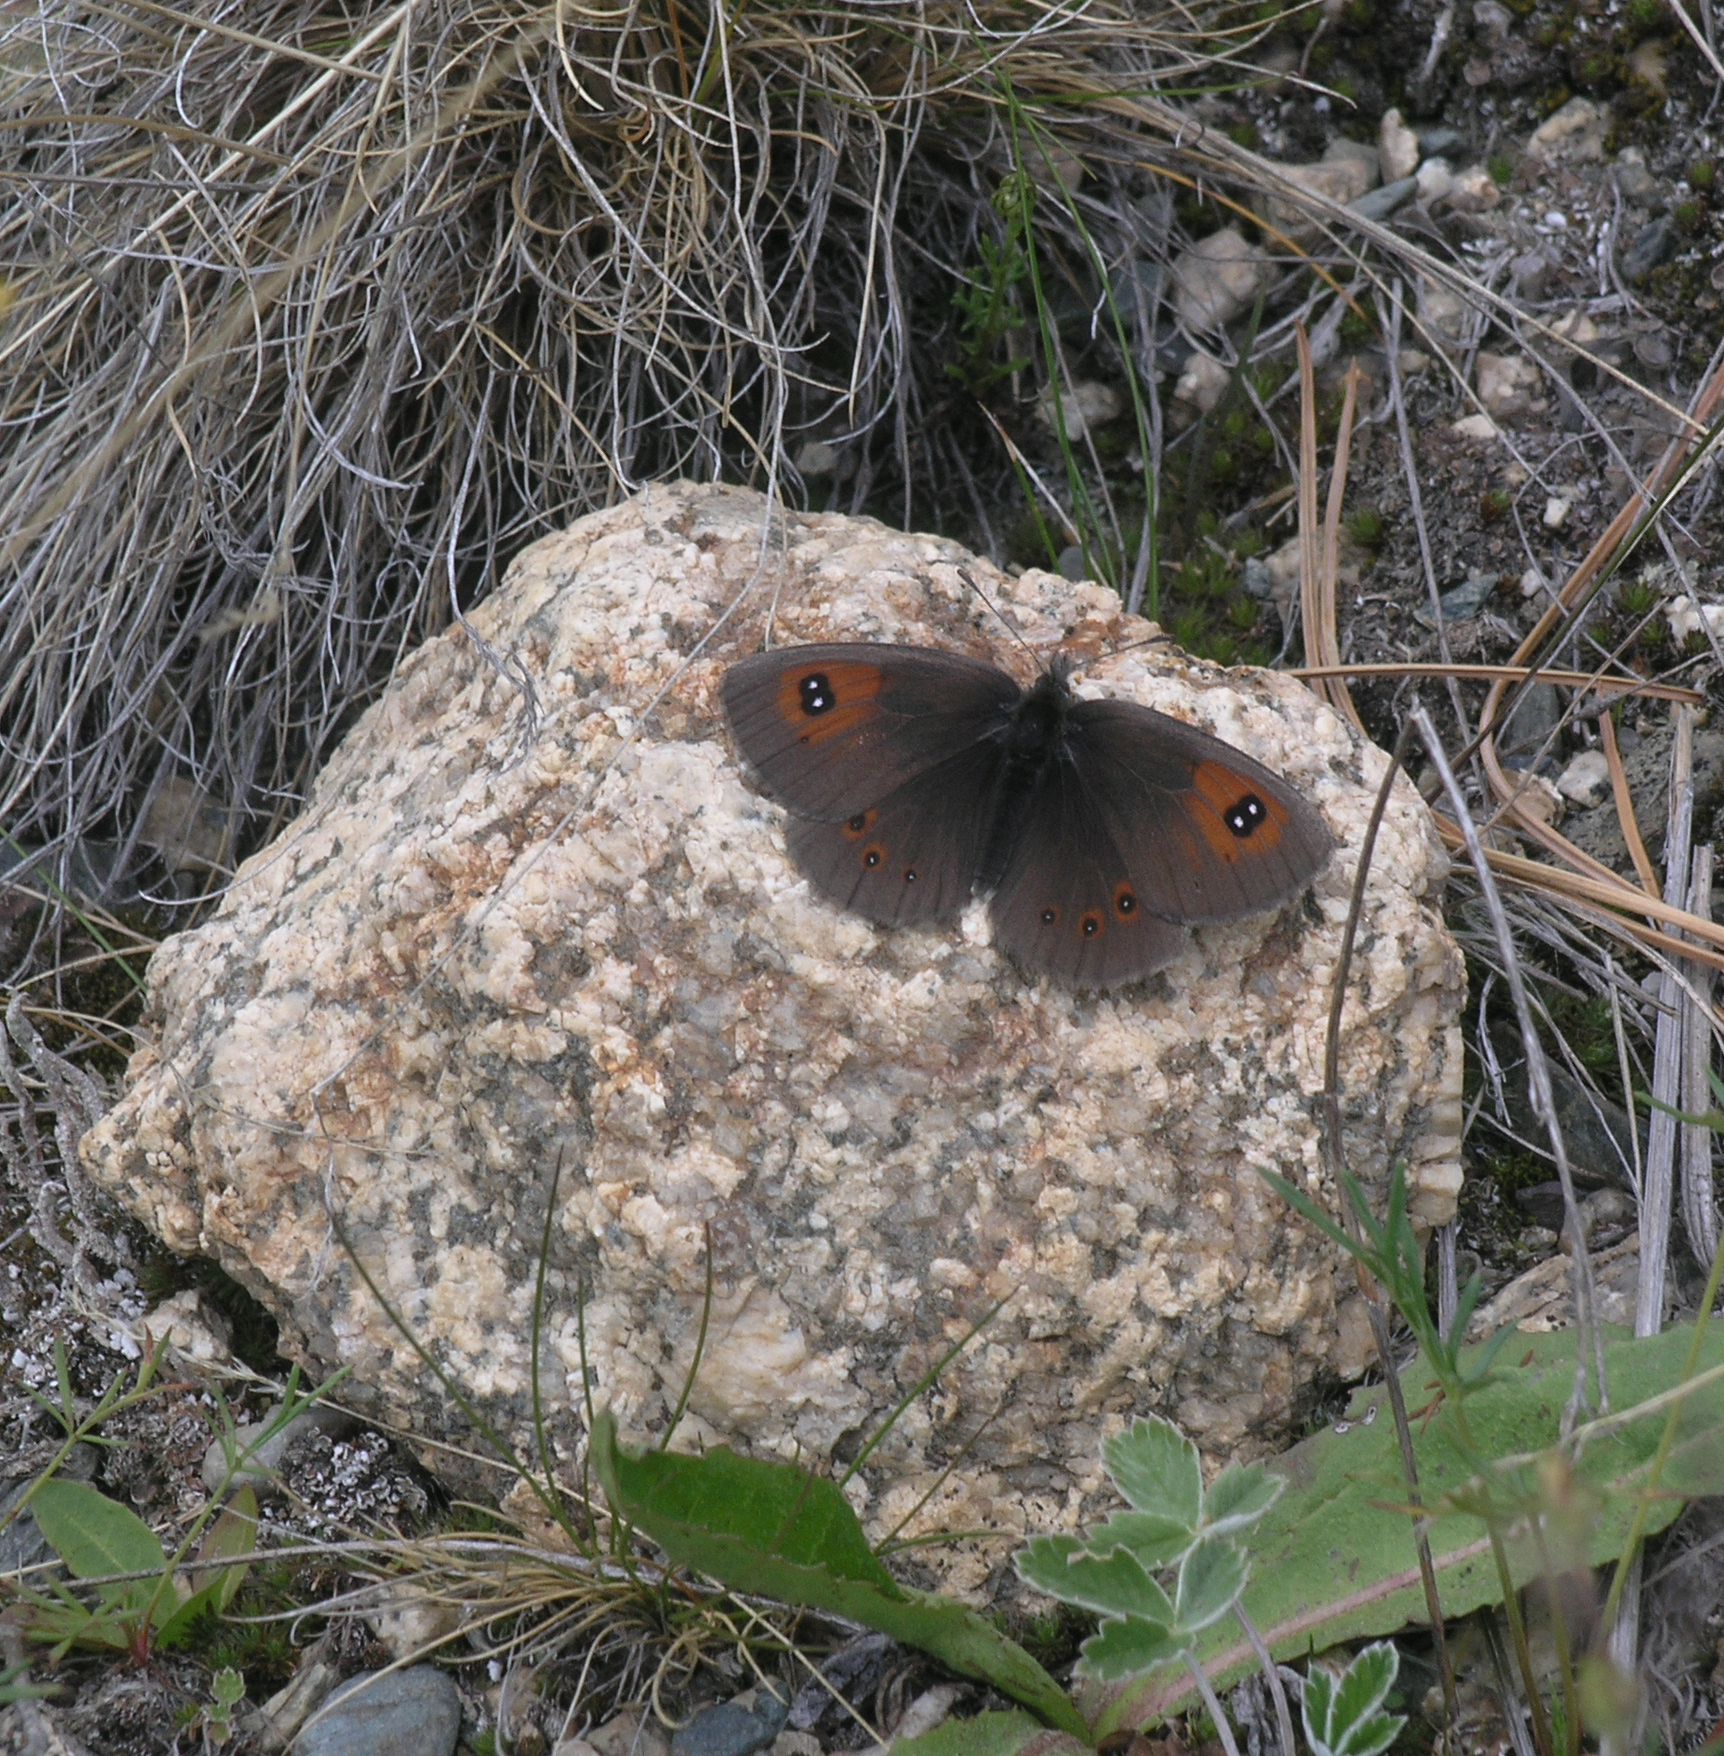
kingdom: Animalia
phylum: Arthropoda
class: Insecta
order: Lepidoptera
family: Nymphalidae
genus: Erebia
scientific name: Erebia tyndarus
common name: Swiss brassy ringlet
